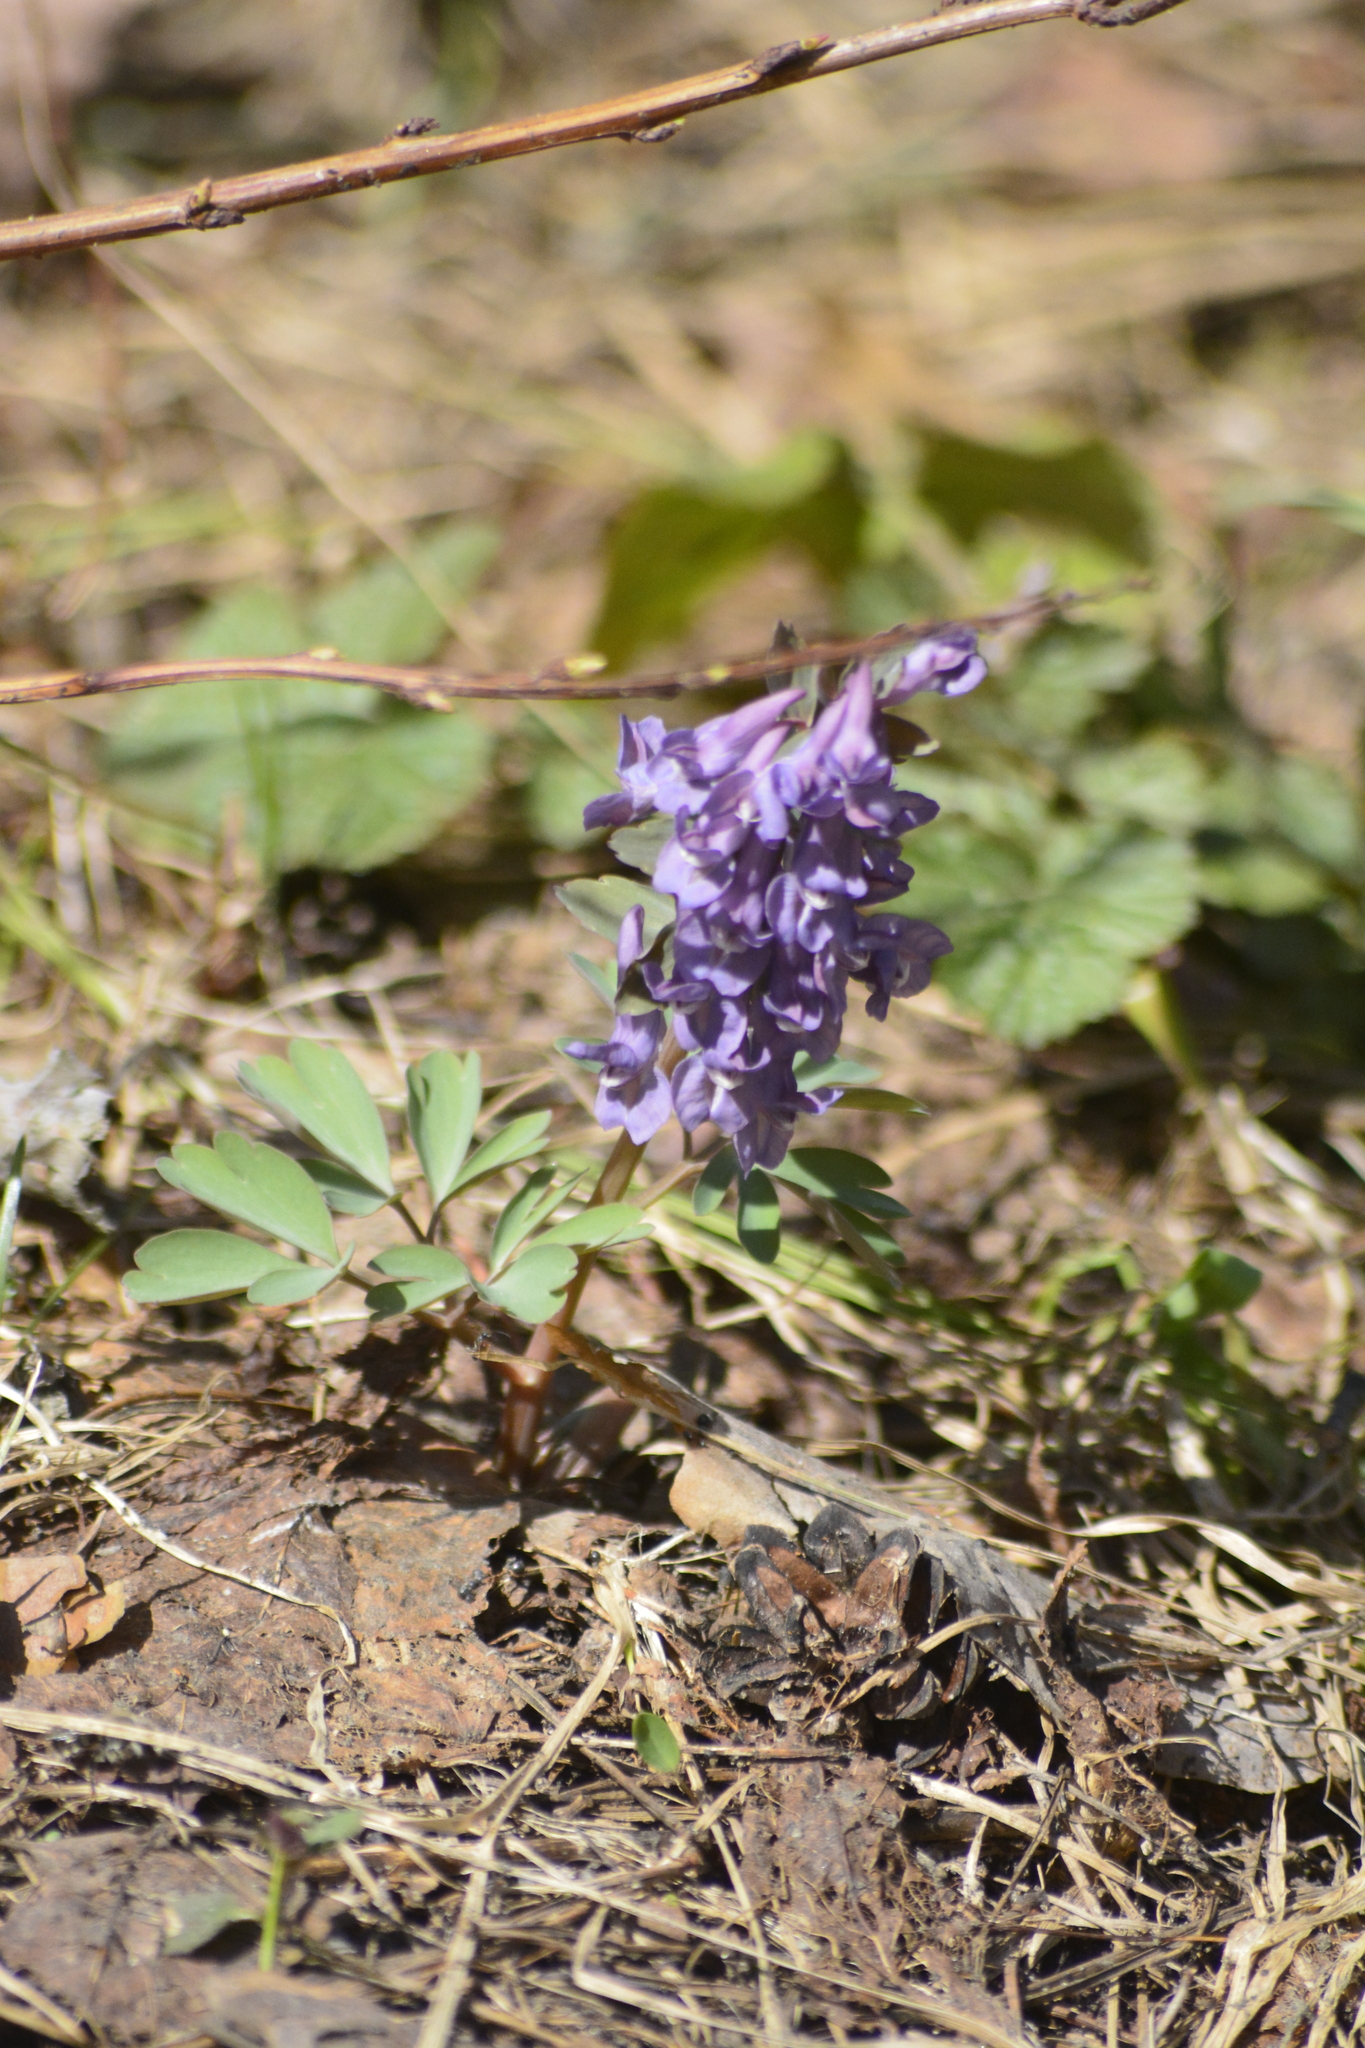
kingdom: Plantae
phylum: Tracheophyta
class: Magnoliopsida
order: Ranunculales
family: Papaveraceae
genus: Corydalis
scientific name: Corydalis solida
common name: Bird-in-a-bush
